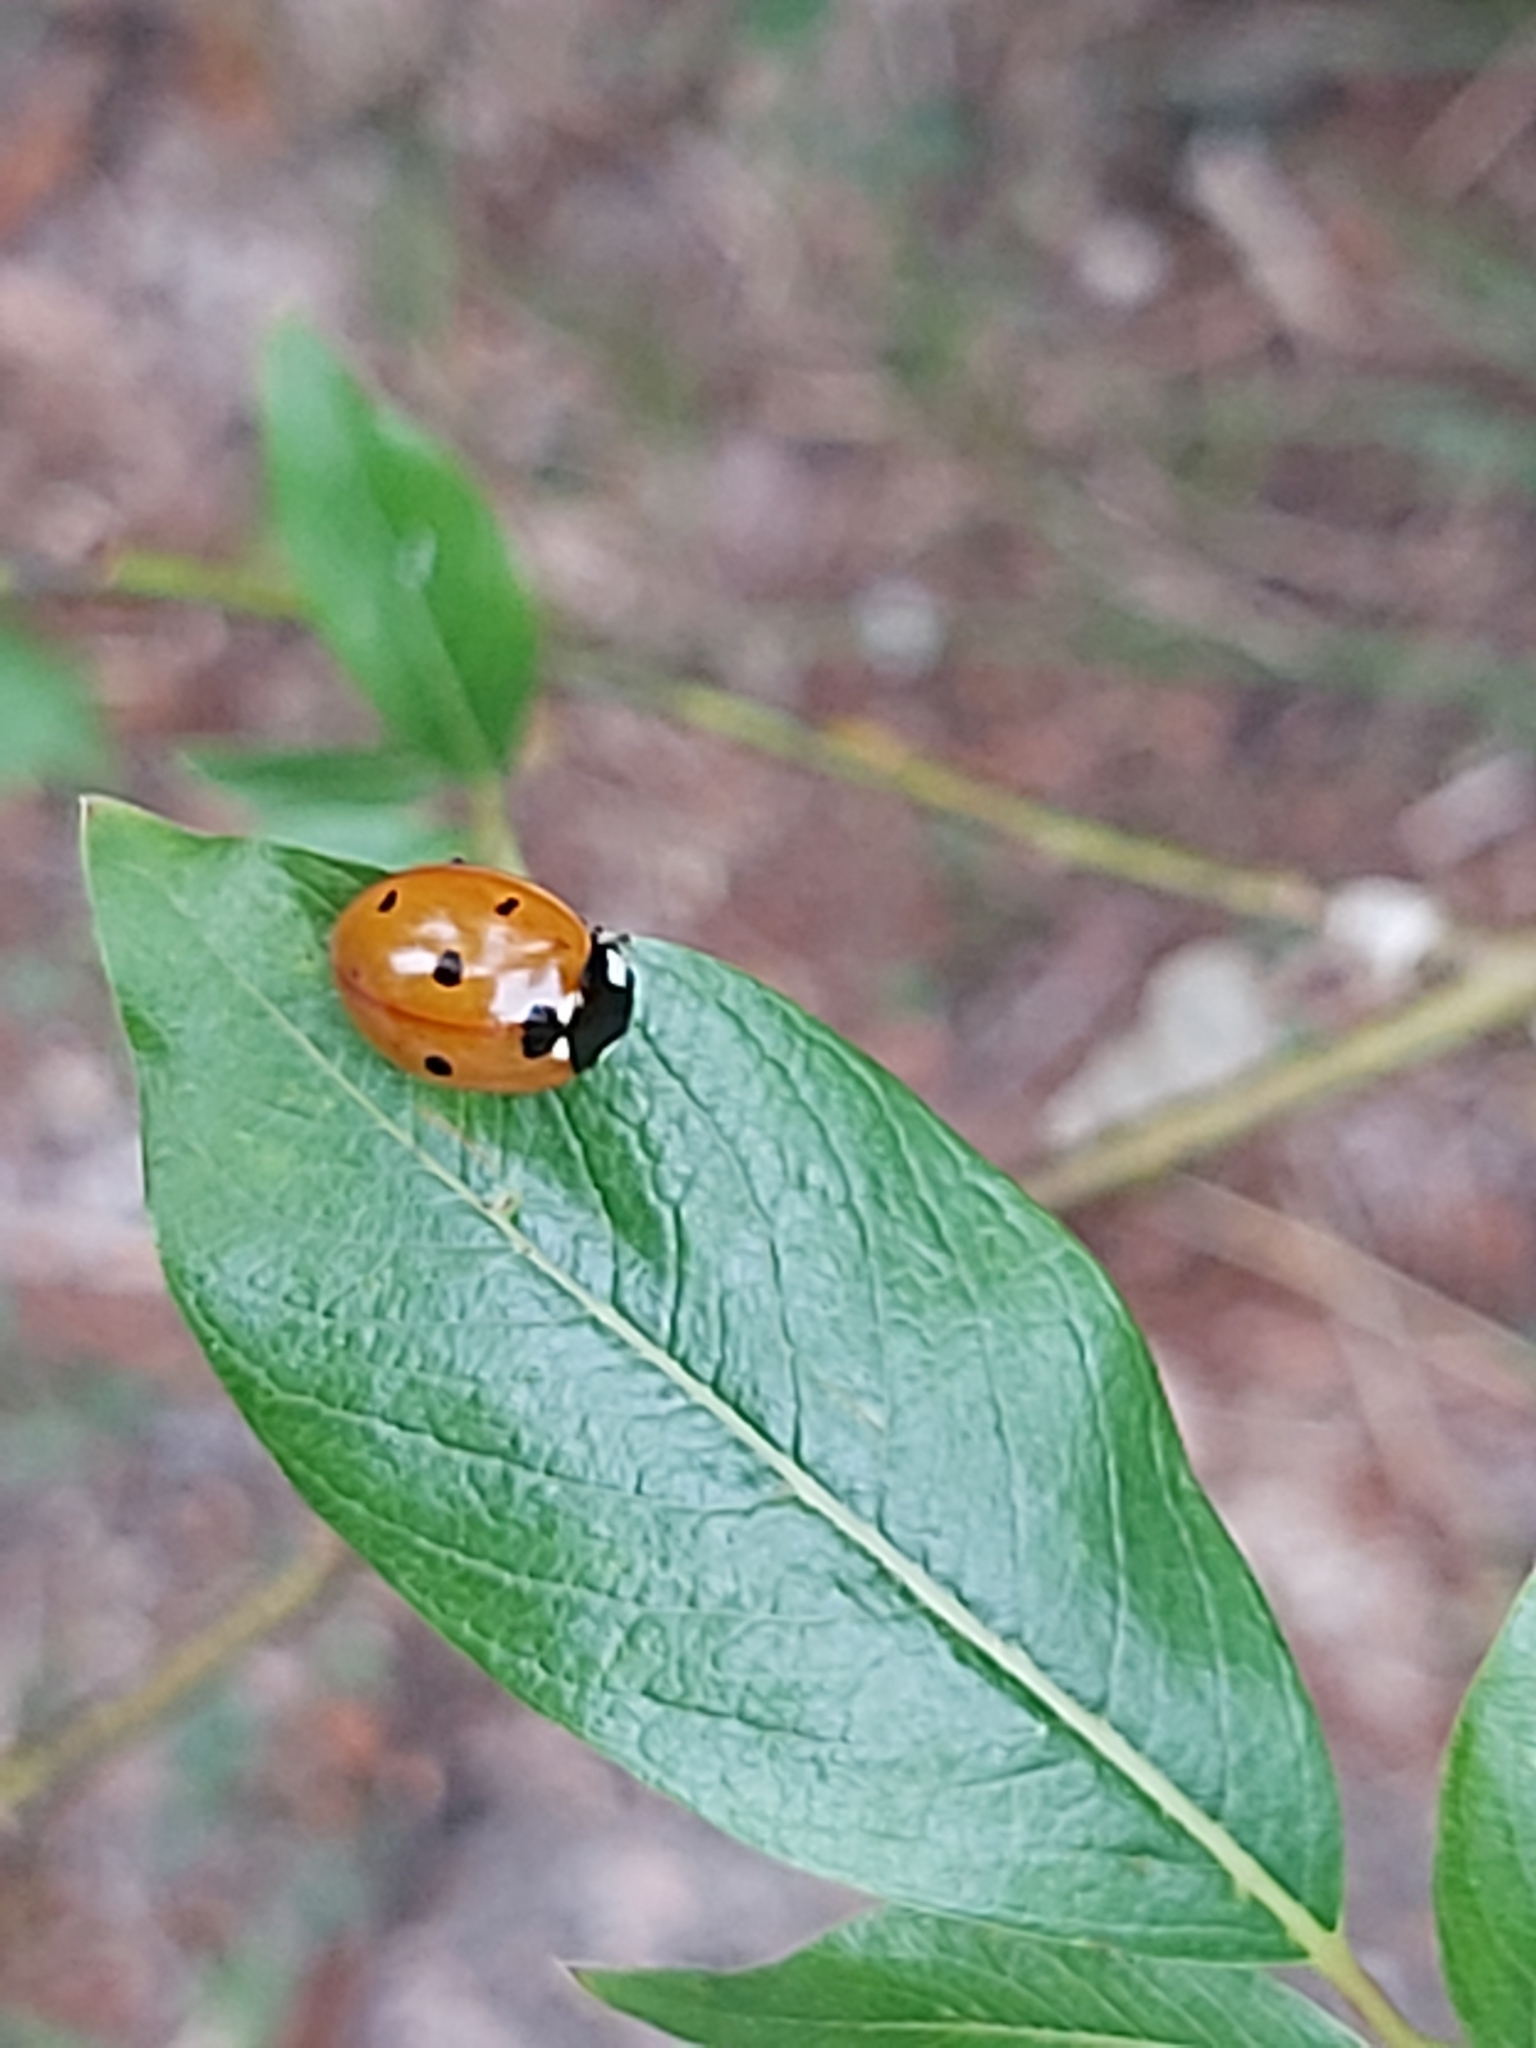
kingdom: Animalia
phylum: Arthropoda
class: Insecta
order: Coleoptera
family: Coccinellidae
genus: Coccinella
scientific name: Coccinella septempunctata
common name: Sevenspotted lady beetle
